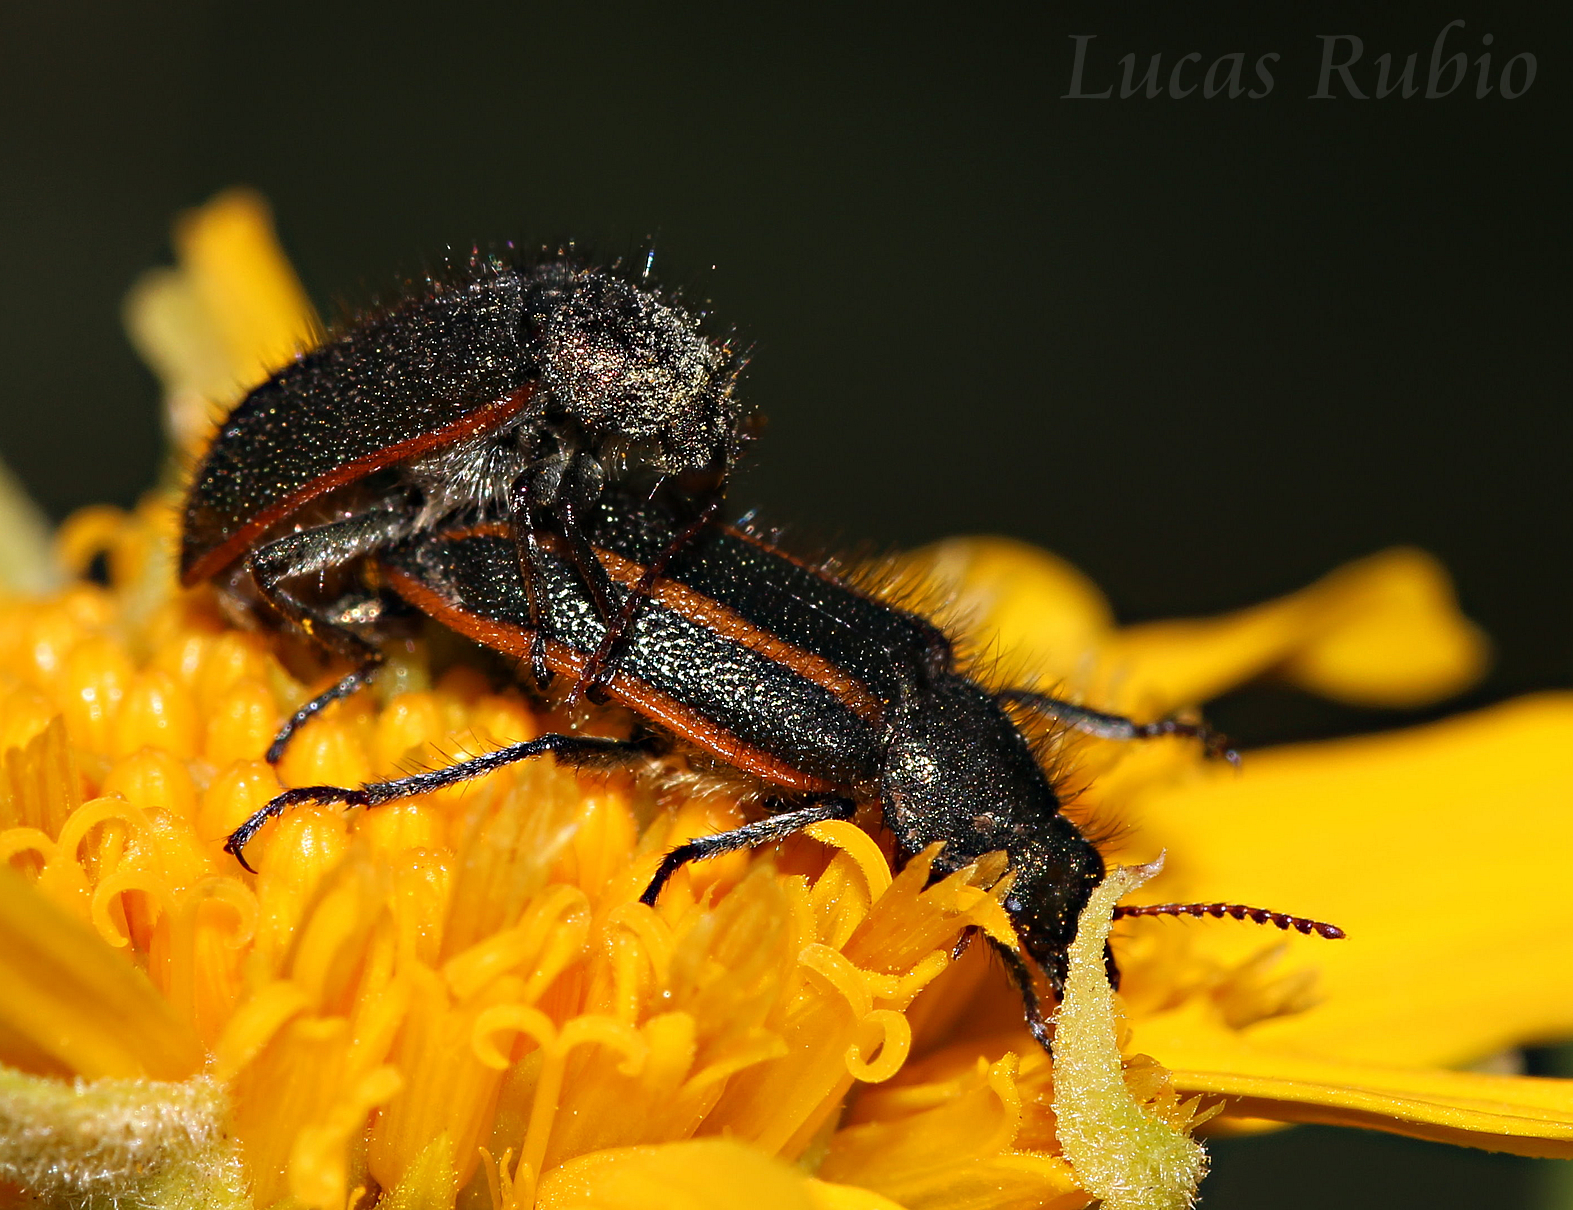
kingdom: Animalia
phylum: Arthropoda
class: Insecta
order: Coleoptera
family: Melyridae
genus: Astylus
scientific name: Astylus
